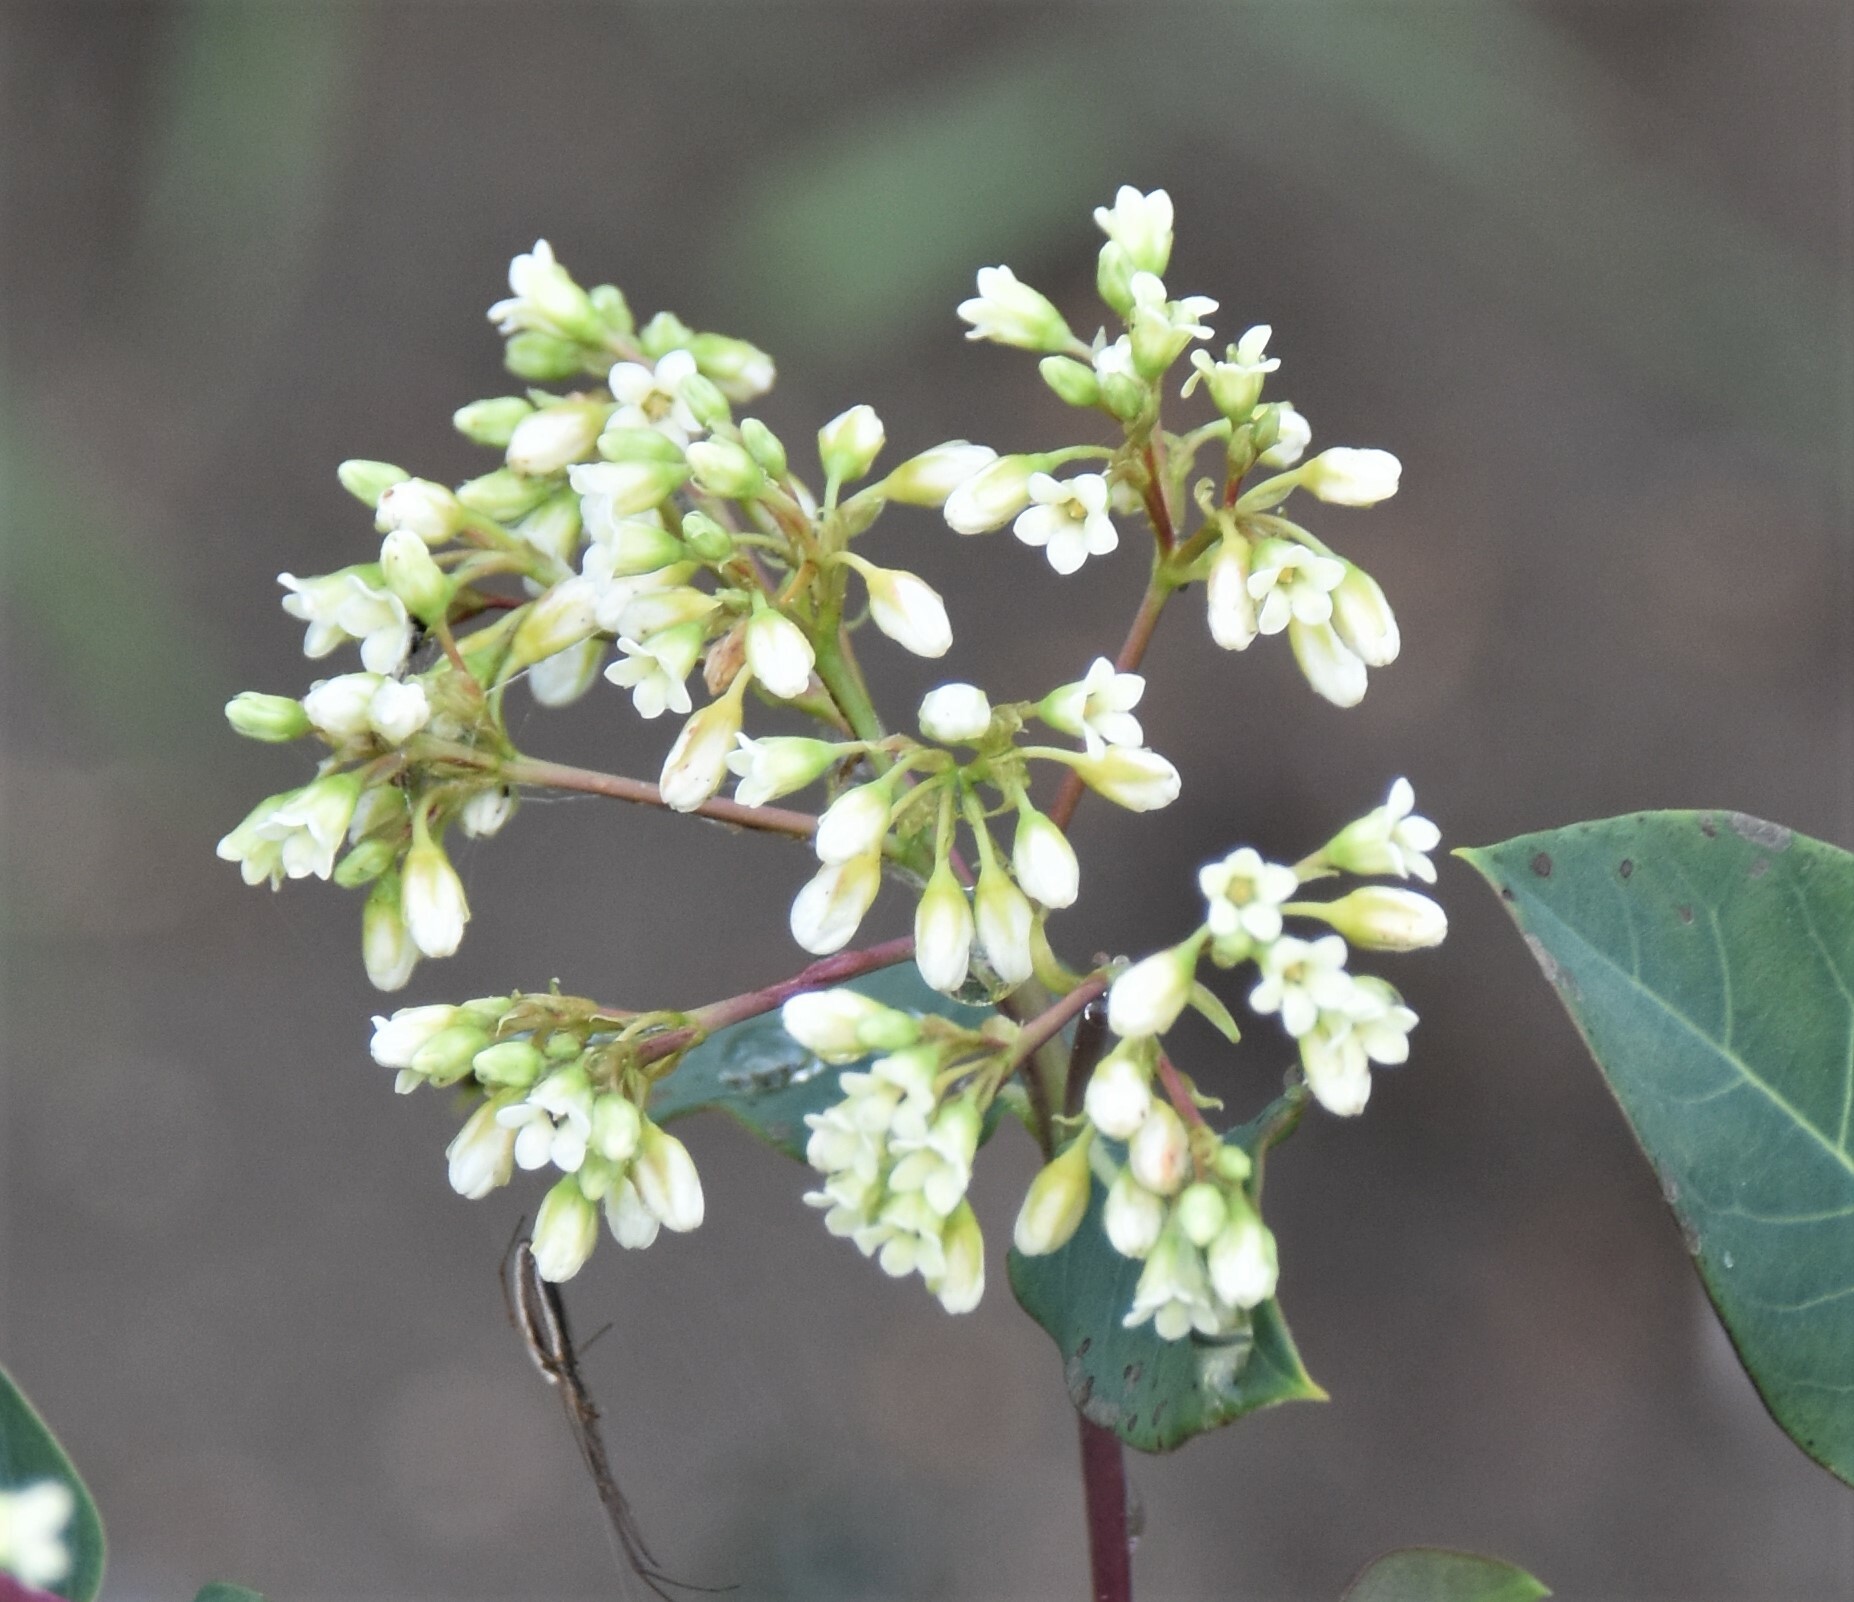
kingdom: Plantae
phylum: Tracheophyta
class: Magnoliopsida
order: Gentianales
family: Apocynaceae
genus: Apocynum
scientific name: Apocynum cannabinum
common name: Hemp dogbane
